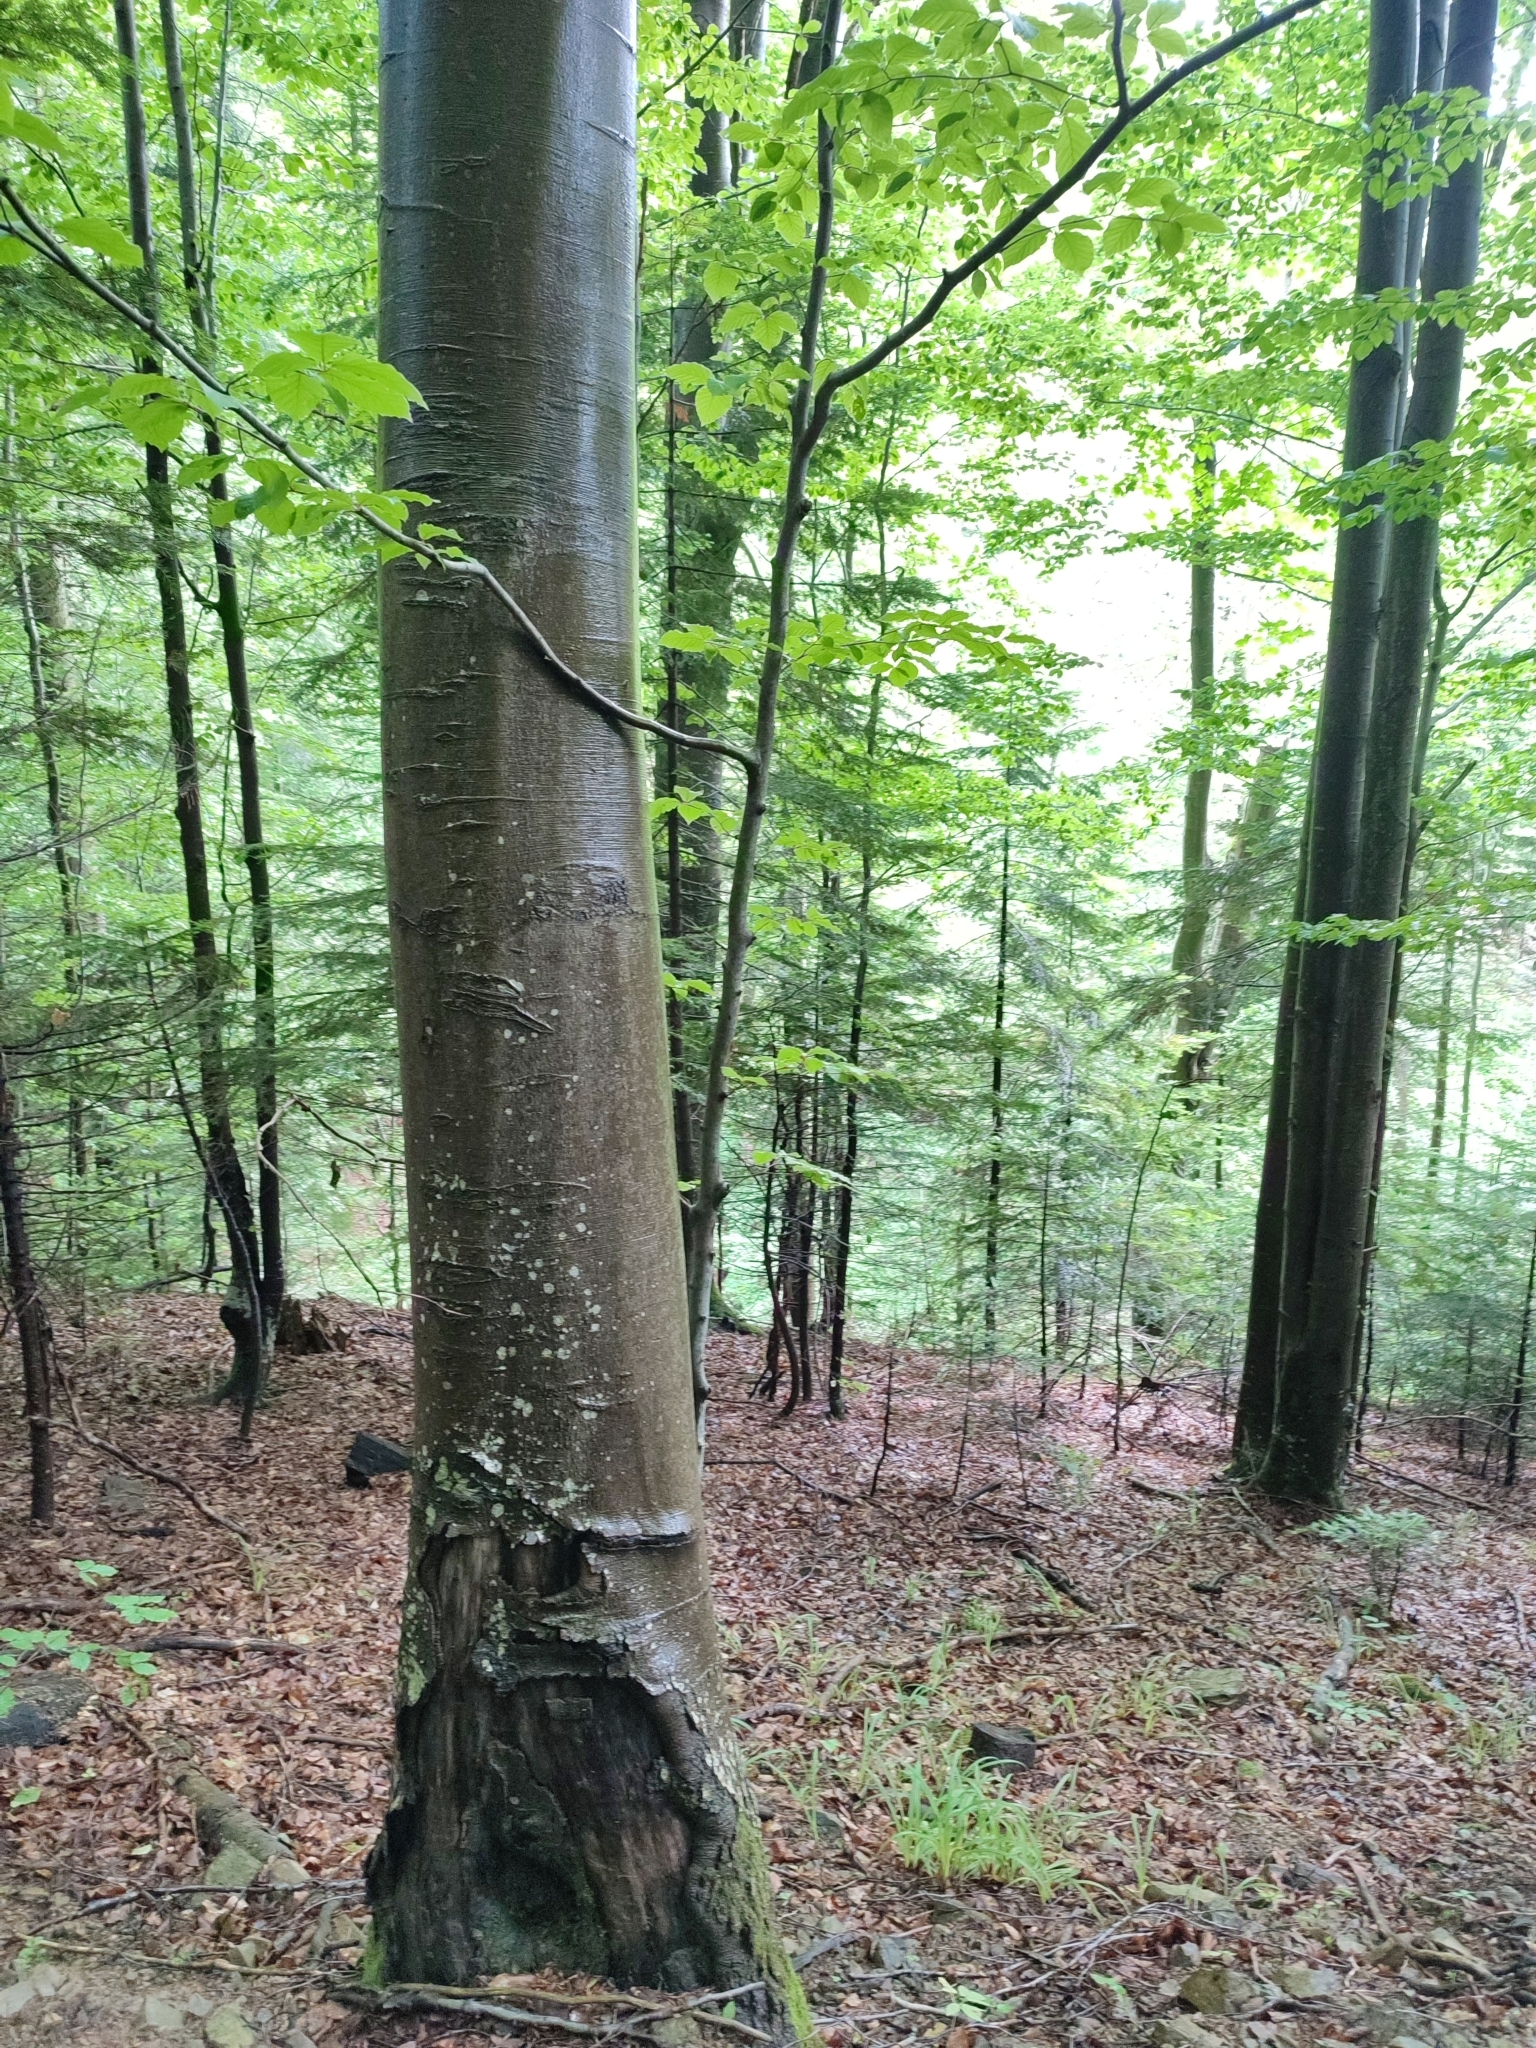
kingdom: Plantae
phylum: Tracheophyta
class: Magnoliopsida
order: Fagales
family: Fagaceae
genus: Fagus
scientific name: Fagus sylvatica
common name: Beech
